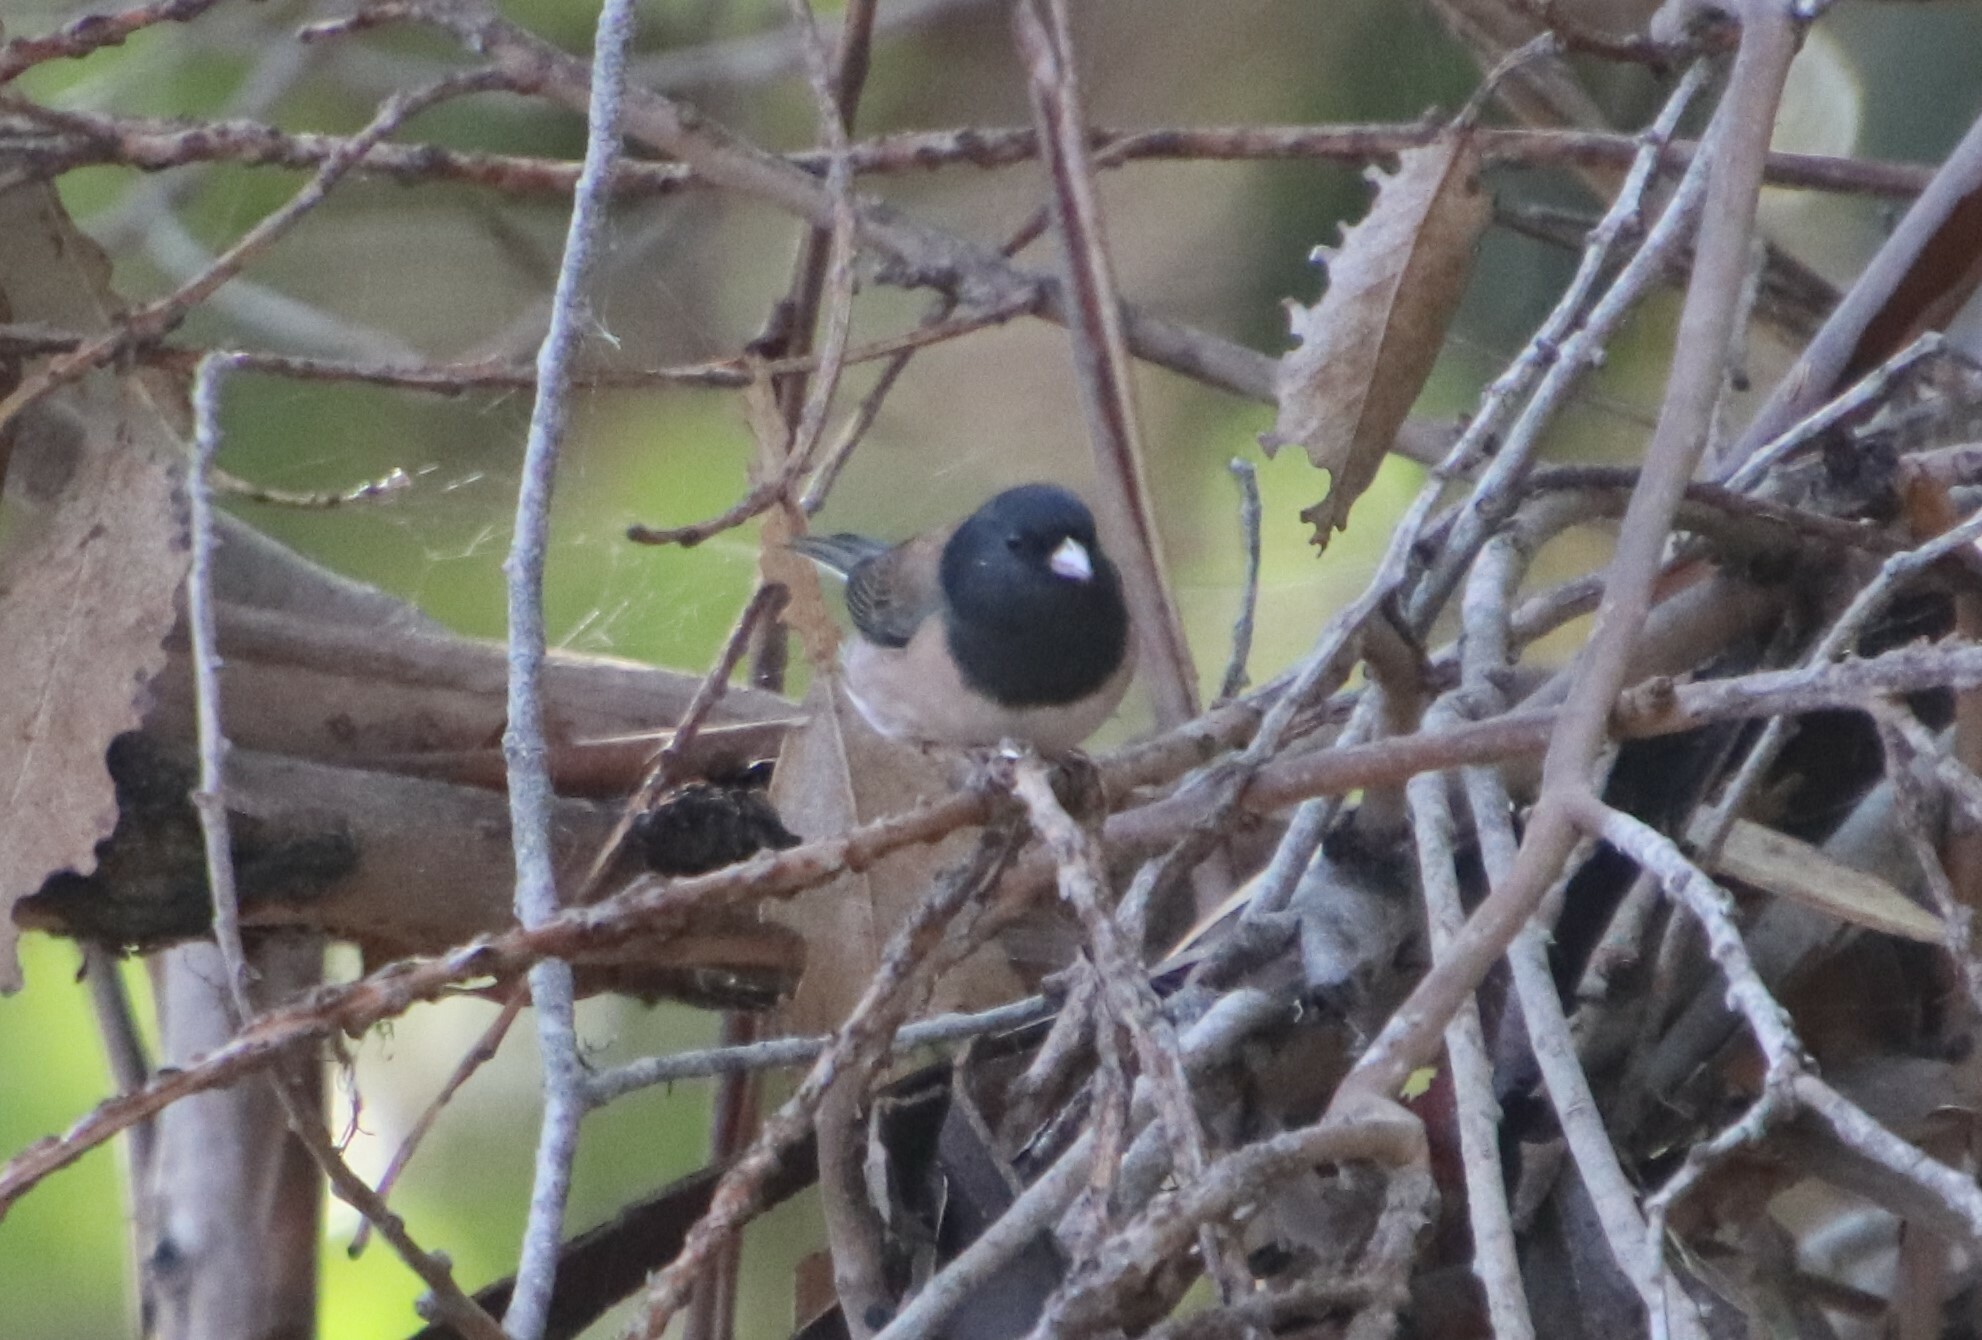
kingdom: Animalia
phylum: Chordata
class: Aves
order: Passeriformes
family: Passerellidae
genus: Junco
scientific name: Junco hyemalis
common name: Dark-eyed junco
